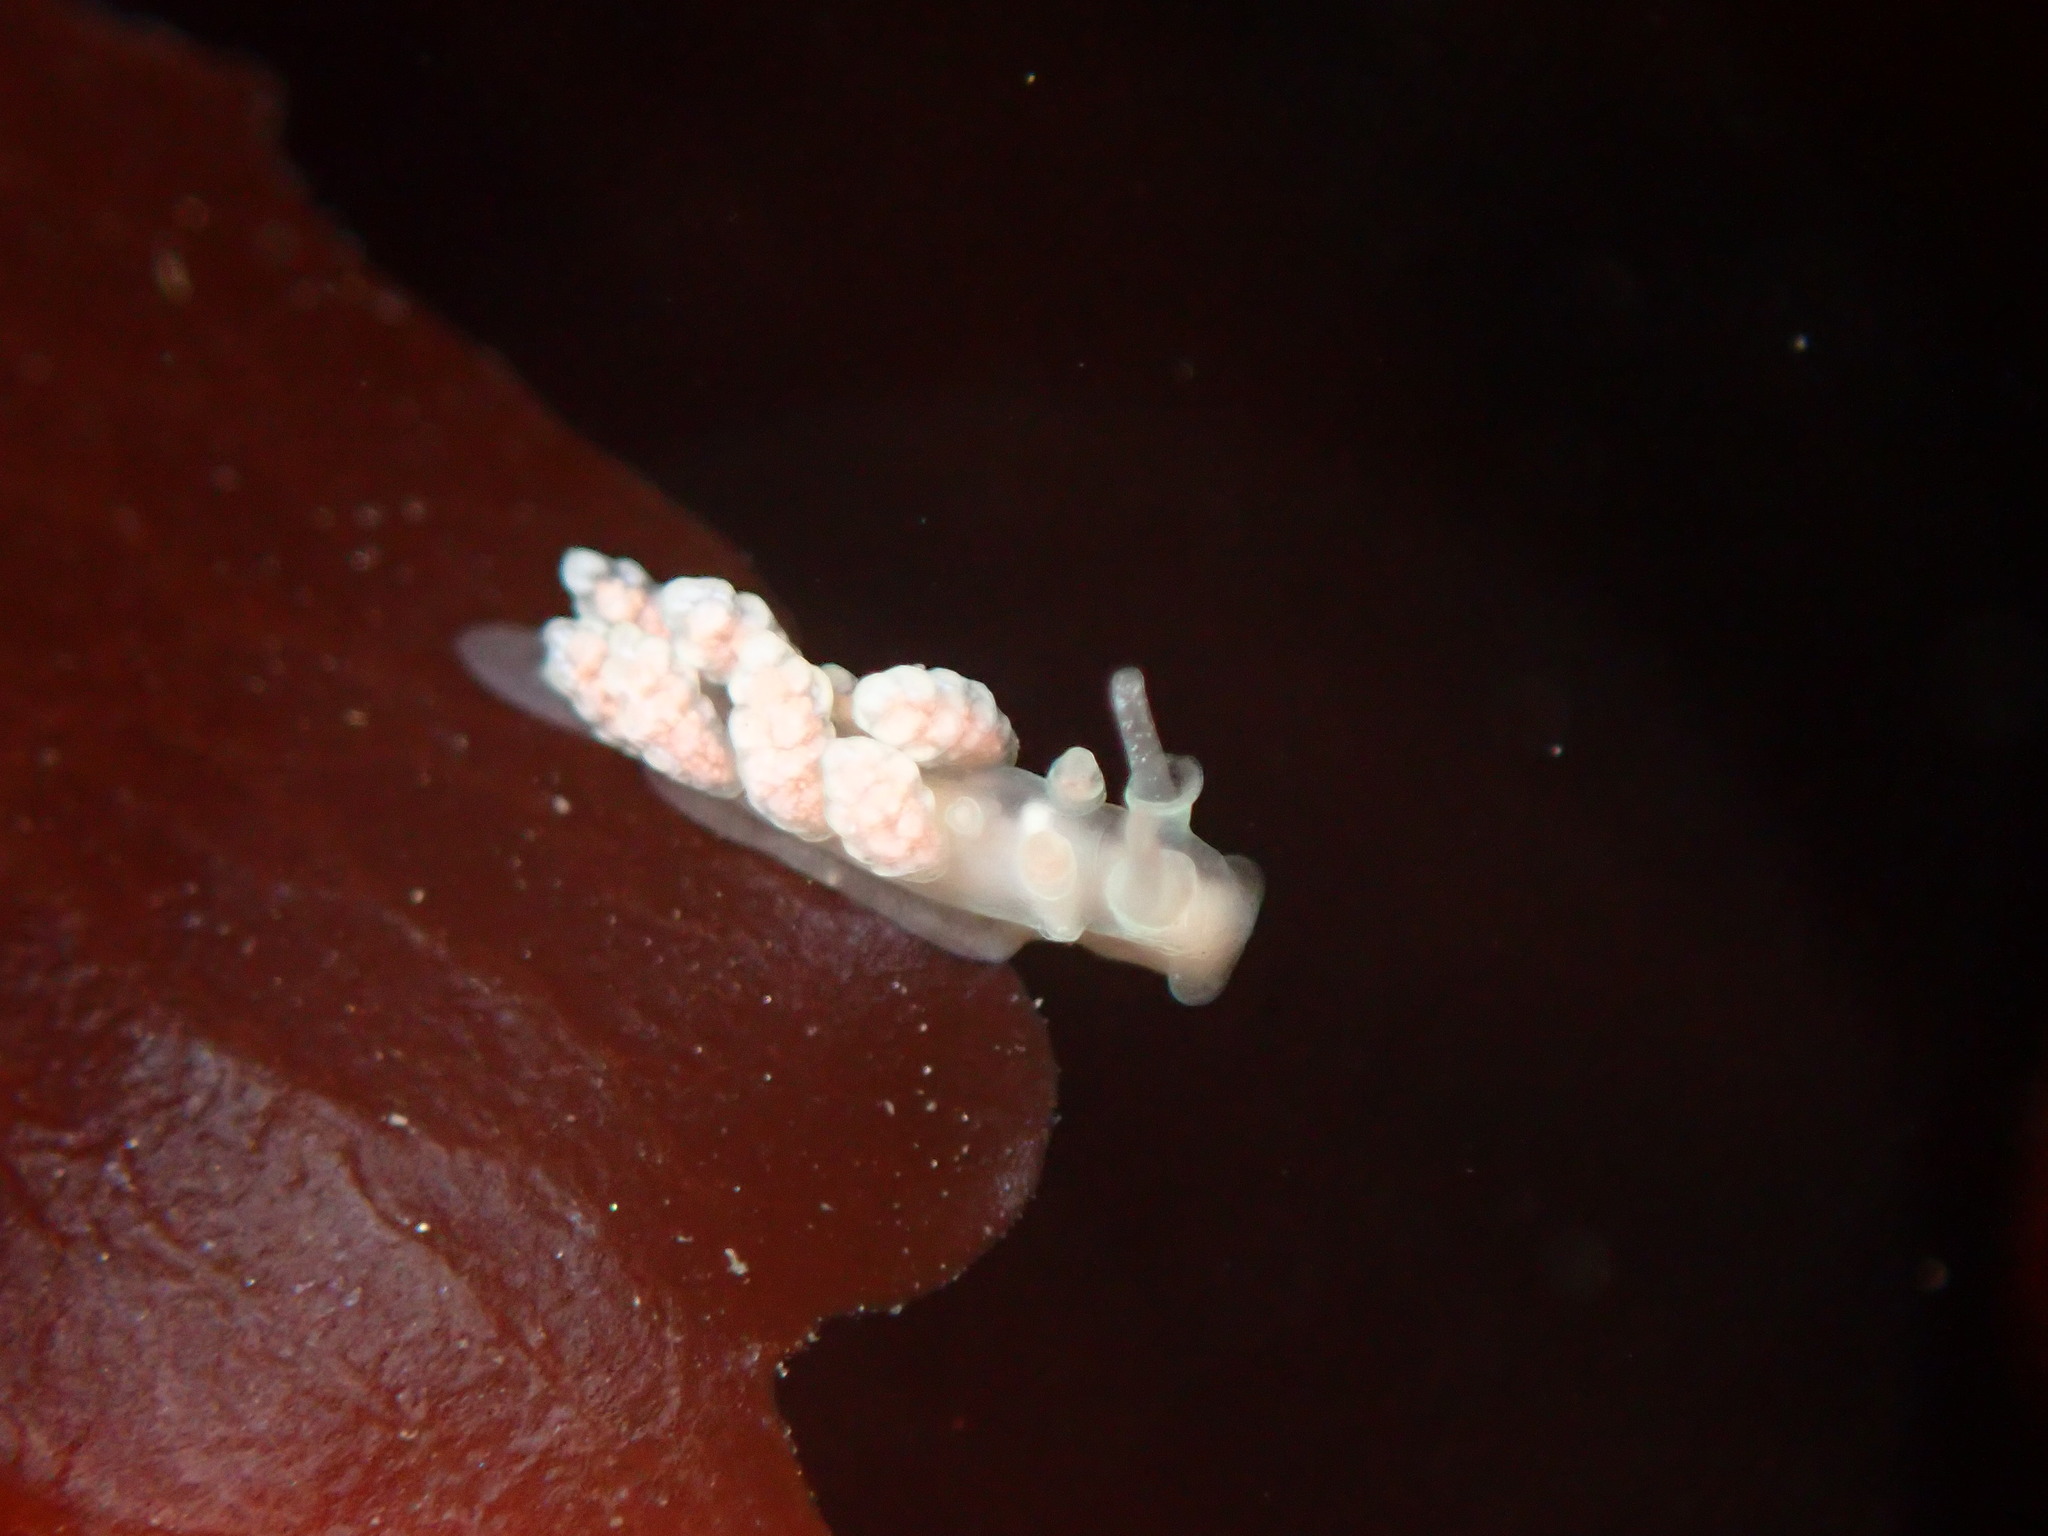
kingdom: Animalia
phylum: Mollusca
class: Gastropoda
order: Nudibranchia
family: Dotidae
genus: Doto
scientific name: Doto amyra
